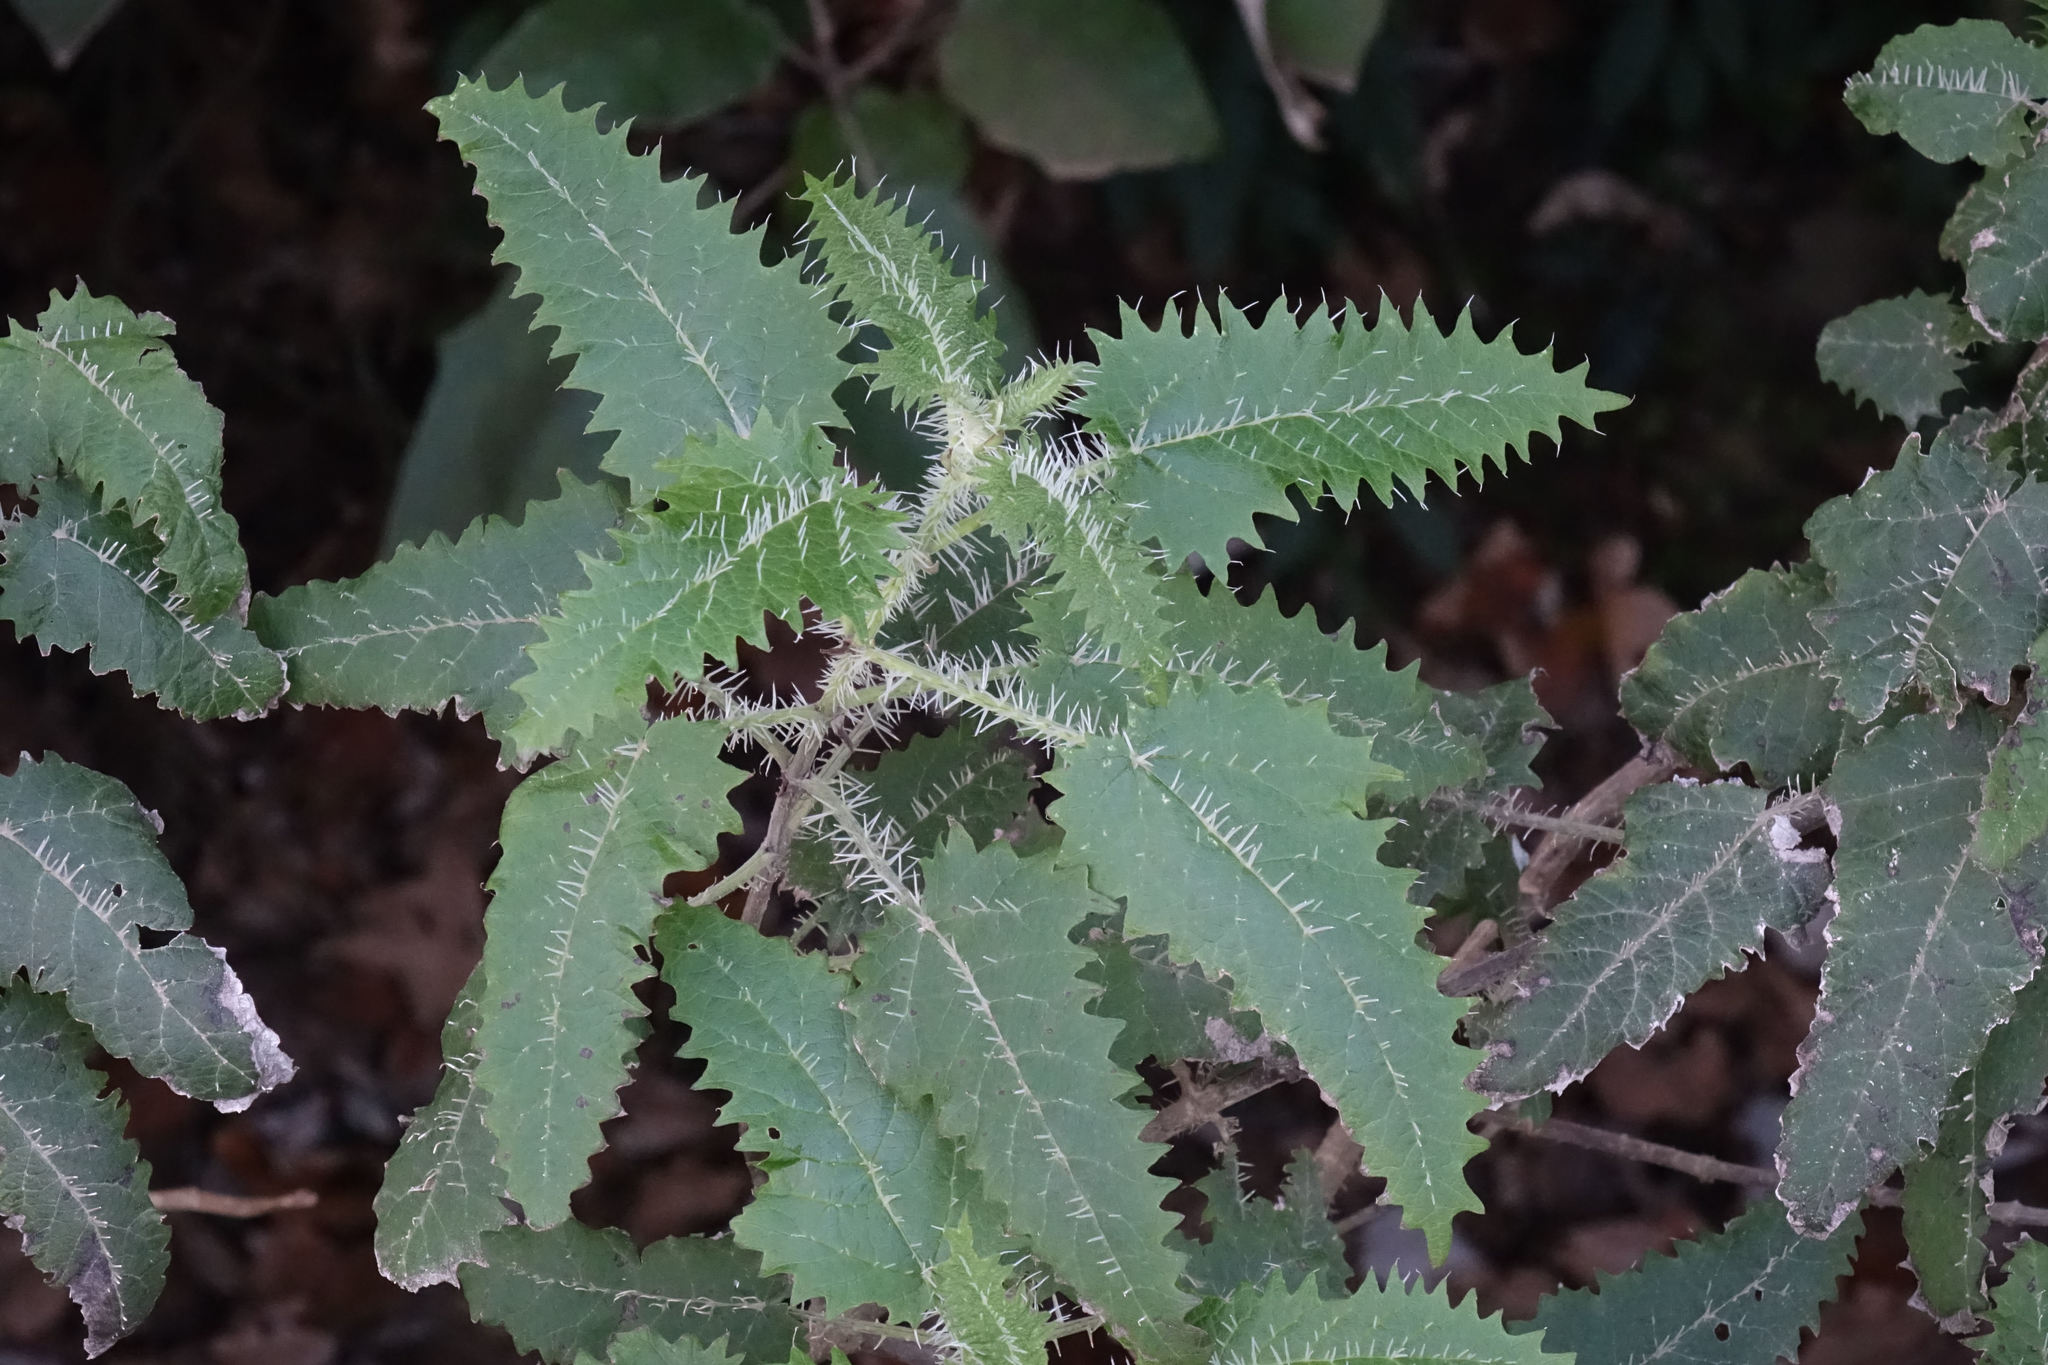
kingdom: Plantae
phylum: Tracheophyta
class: Magnoliopsida
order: Rosales
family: Urticaceae
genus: Urtica
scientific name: Urtica ferox
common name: Tree nettle
